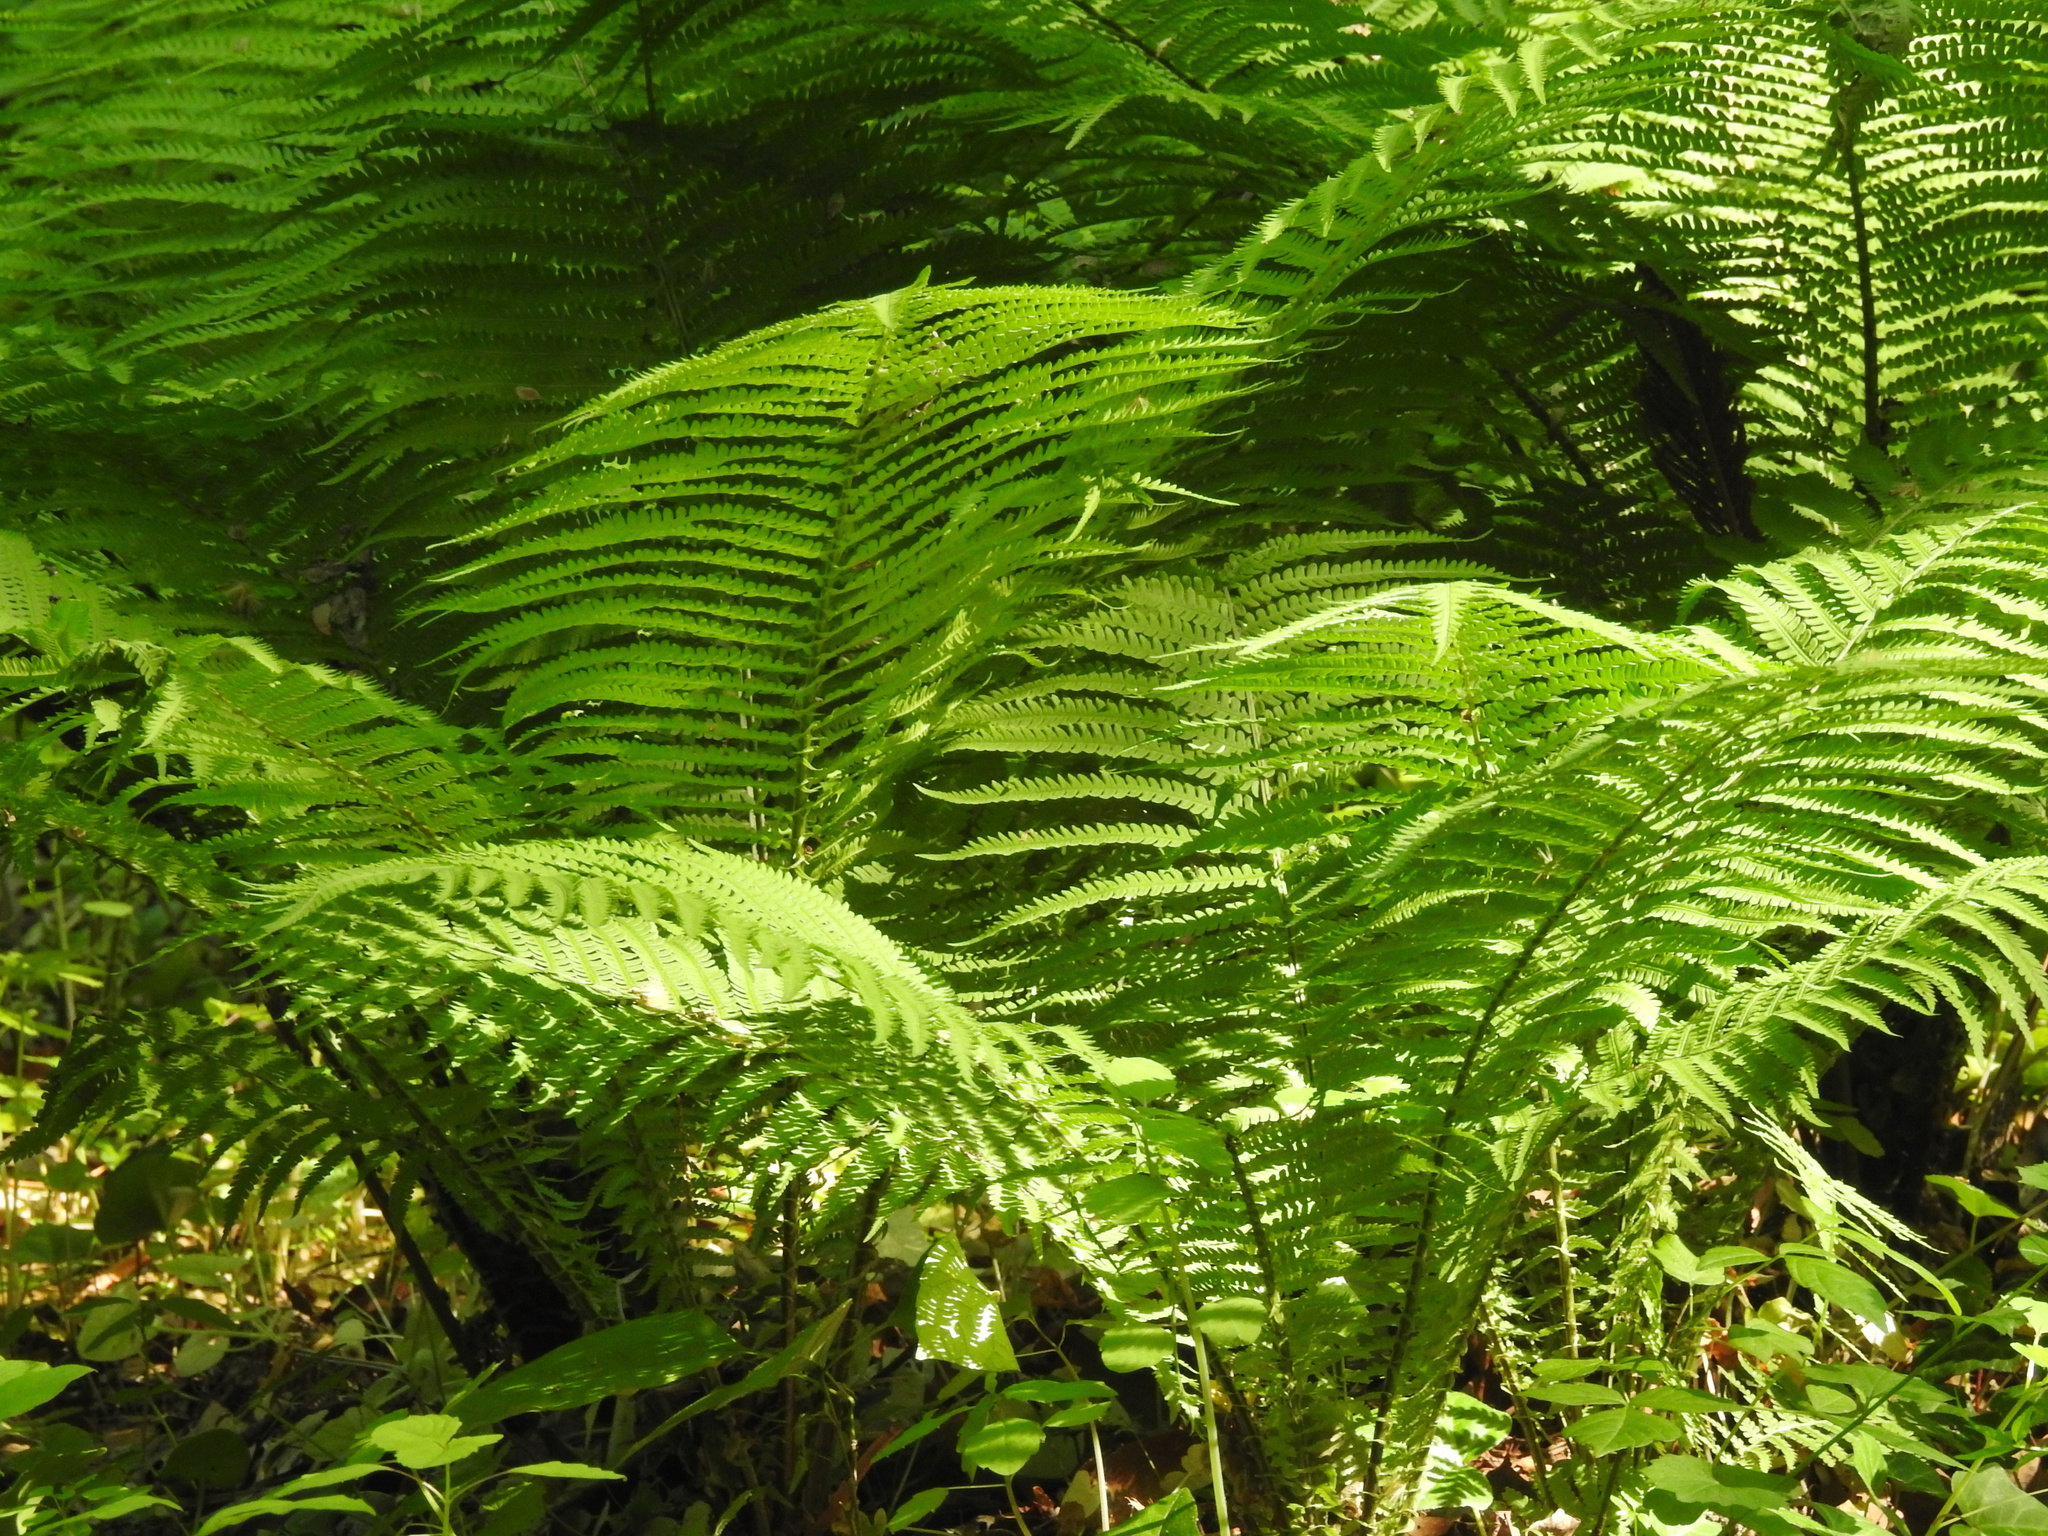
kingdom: Plantae
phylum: Tracheophyta
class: Polypodiopsida
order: Polypodiales
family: Onocleaceae
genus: Matteuccia
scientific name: Matteuccia struthiopteris
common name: Ostrich fern
